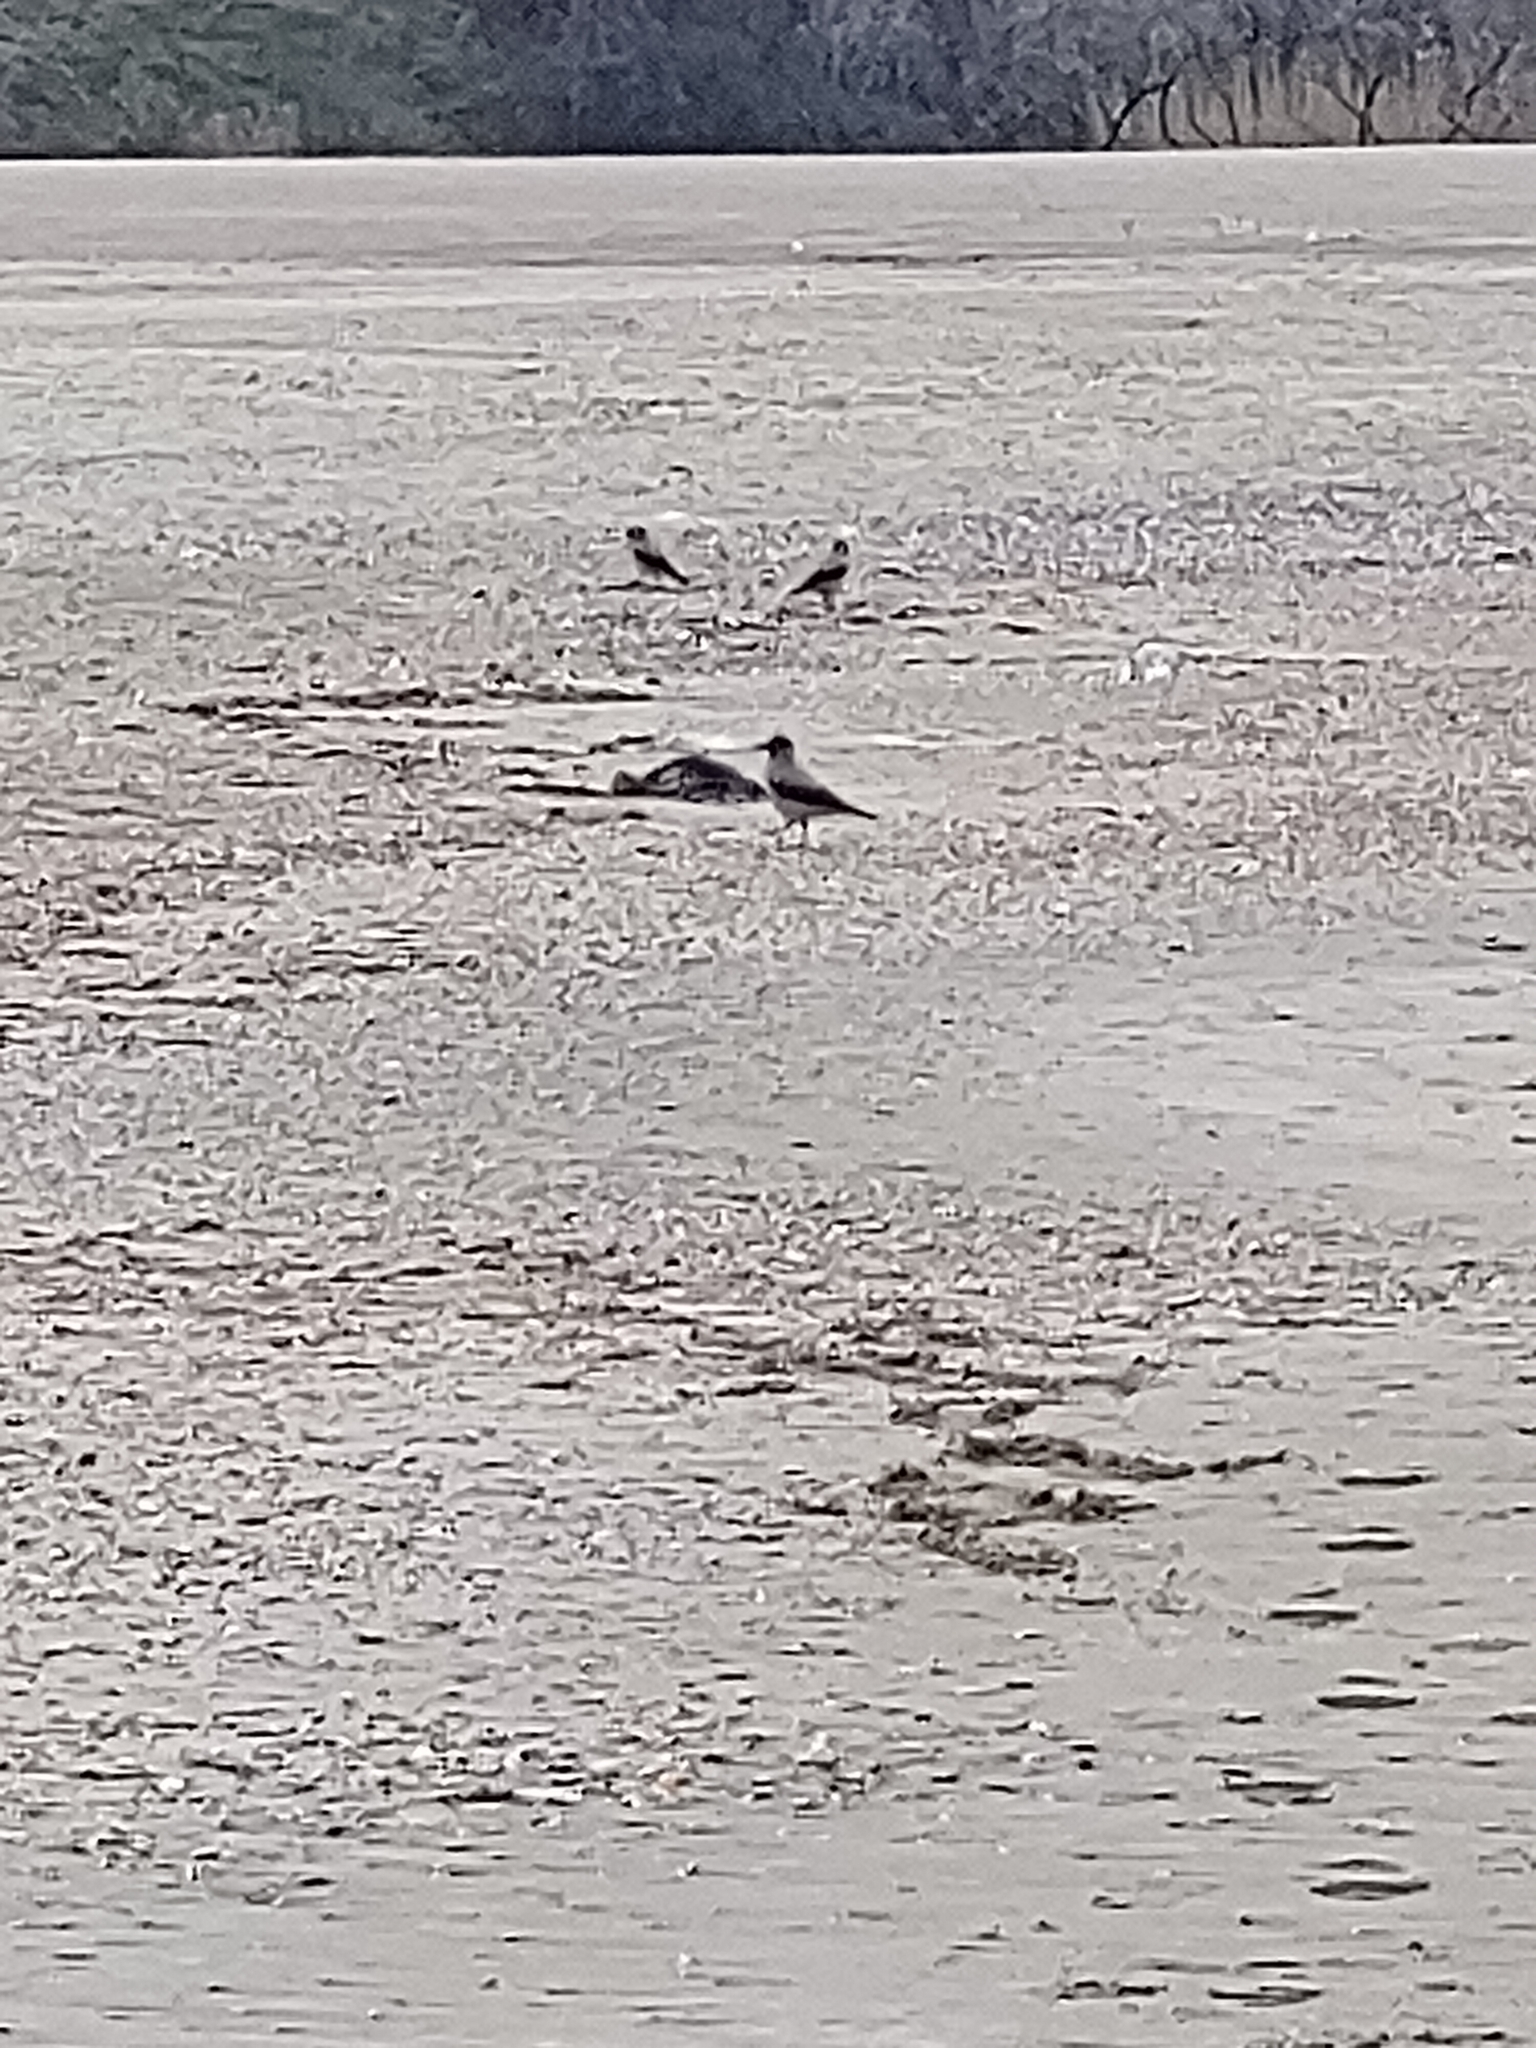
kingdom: Animalia
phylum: Chordata
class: Aves
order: Passeriformes
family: Corvidae
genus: Corvus
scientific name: Corvus cornix
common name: Hooded crow
